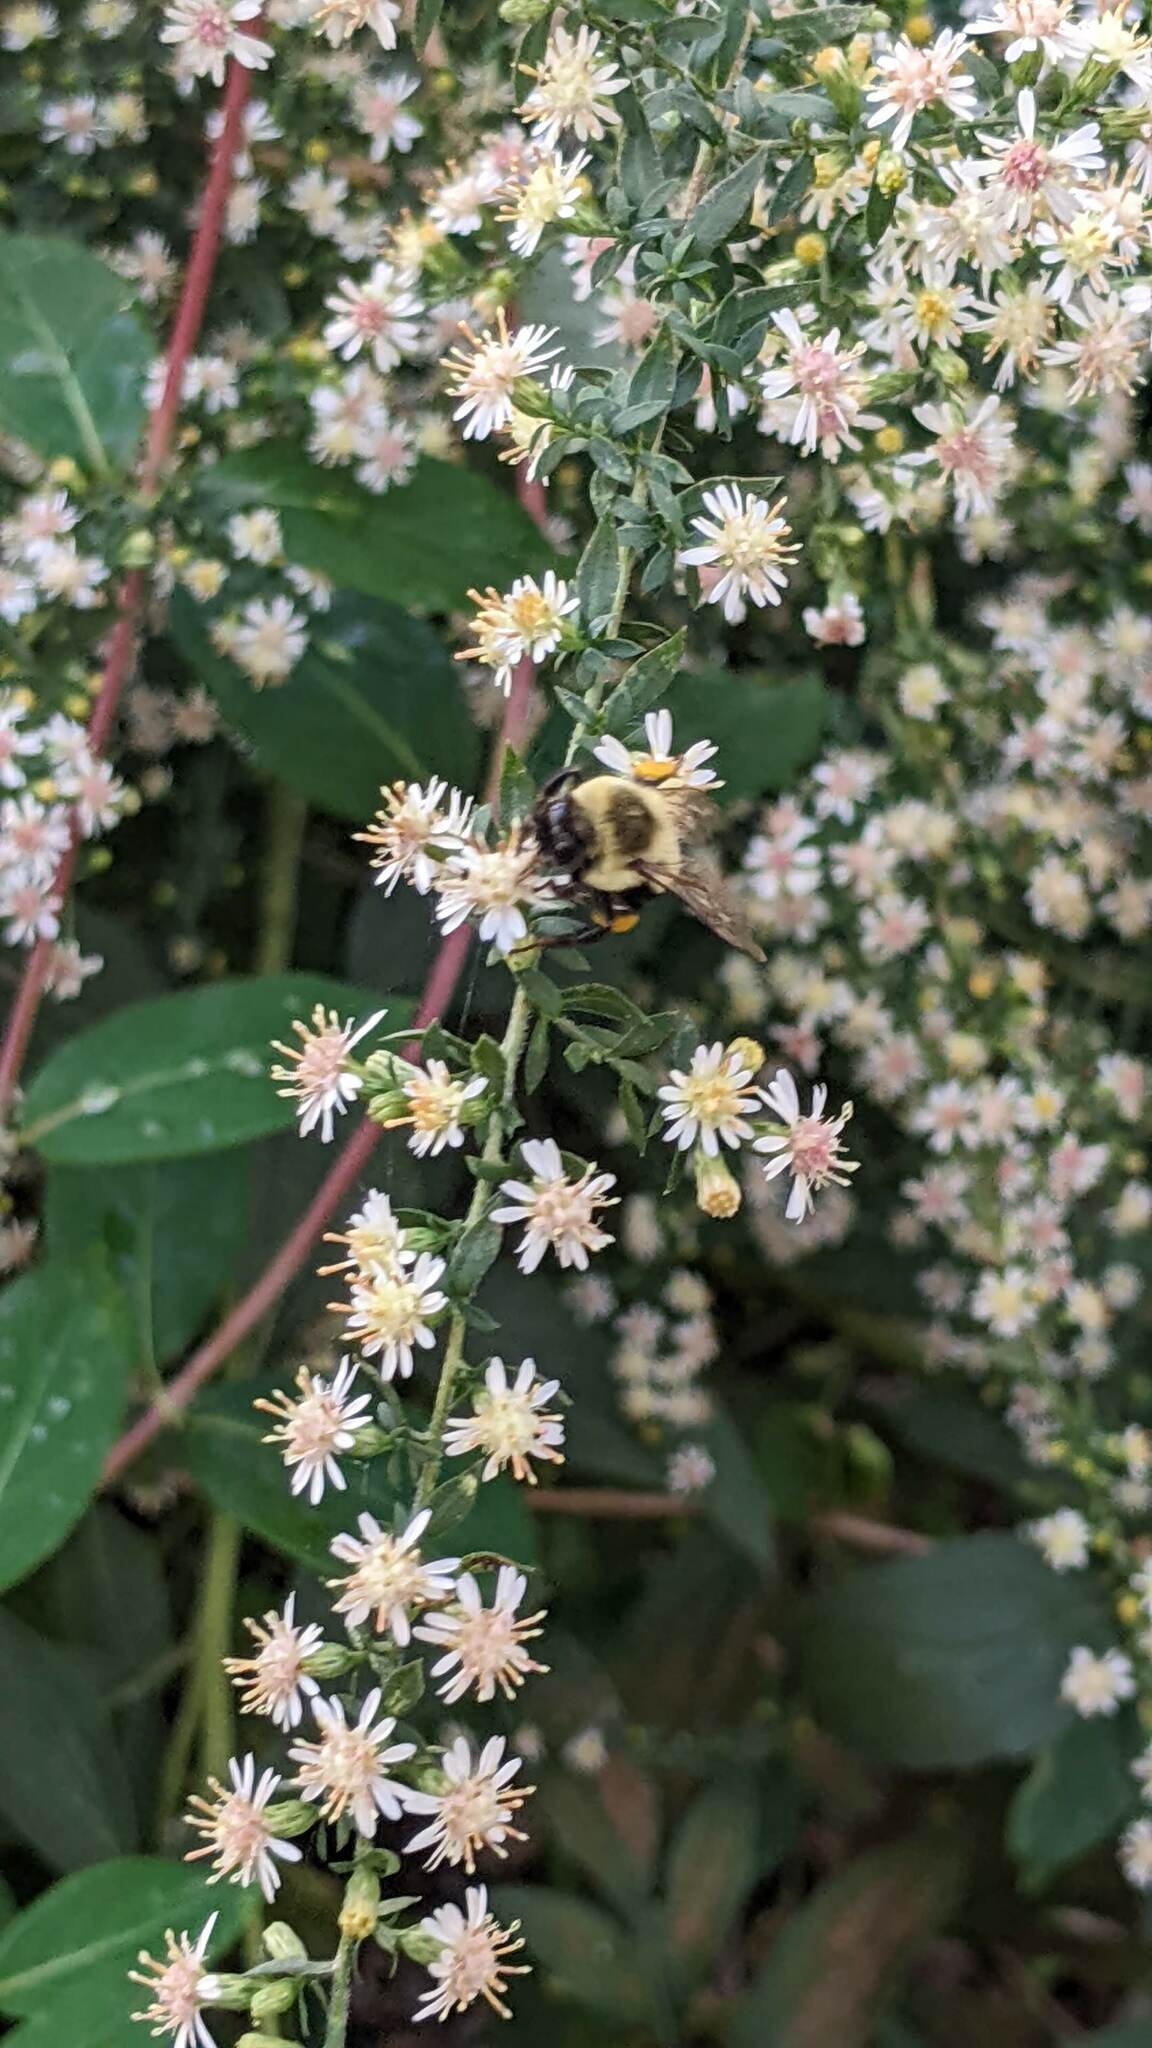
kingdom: Animalia
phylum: Arthropoda
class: Insecta
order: Hymenoptera
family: Apidae
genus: Bombus
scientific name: Bombus impatiens
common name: Common eastern bumble bee
